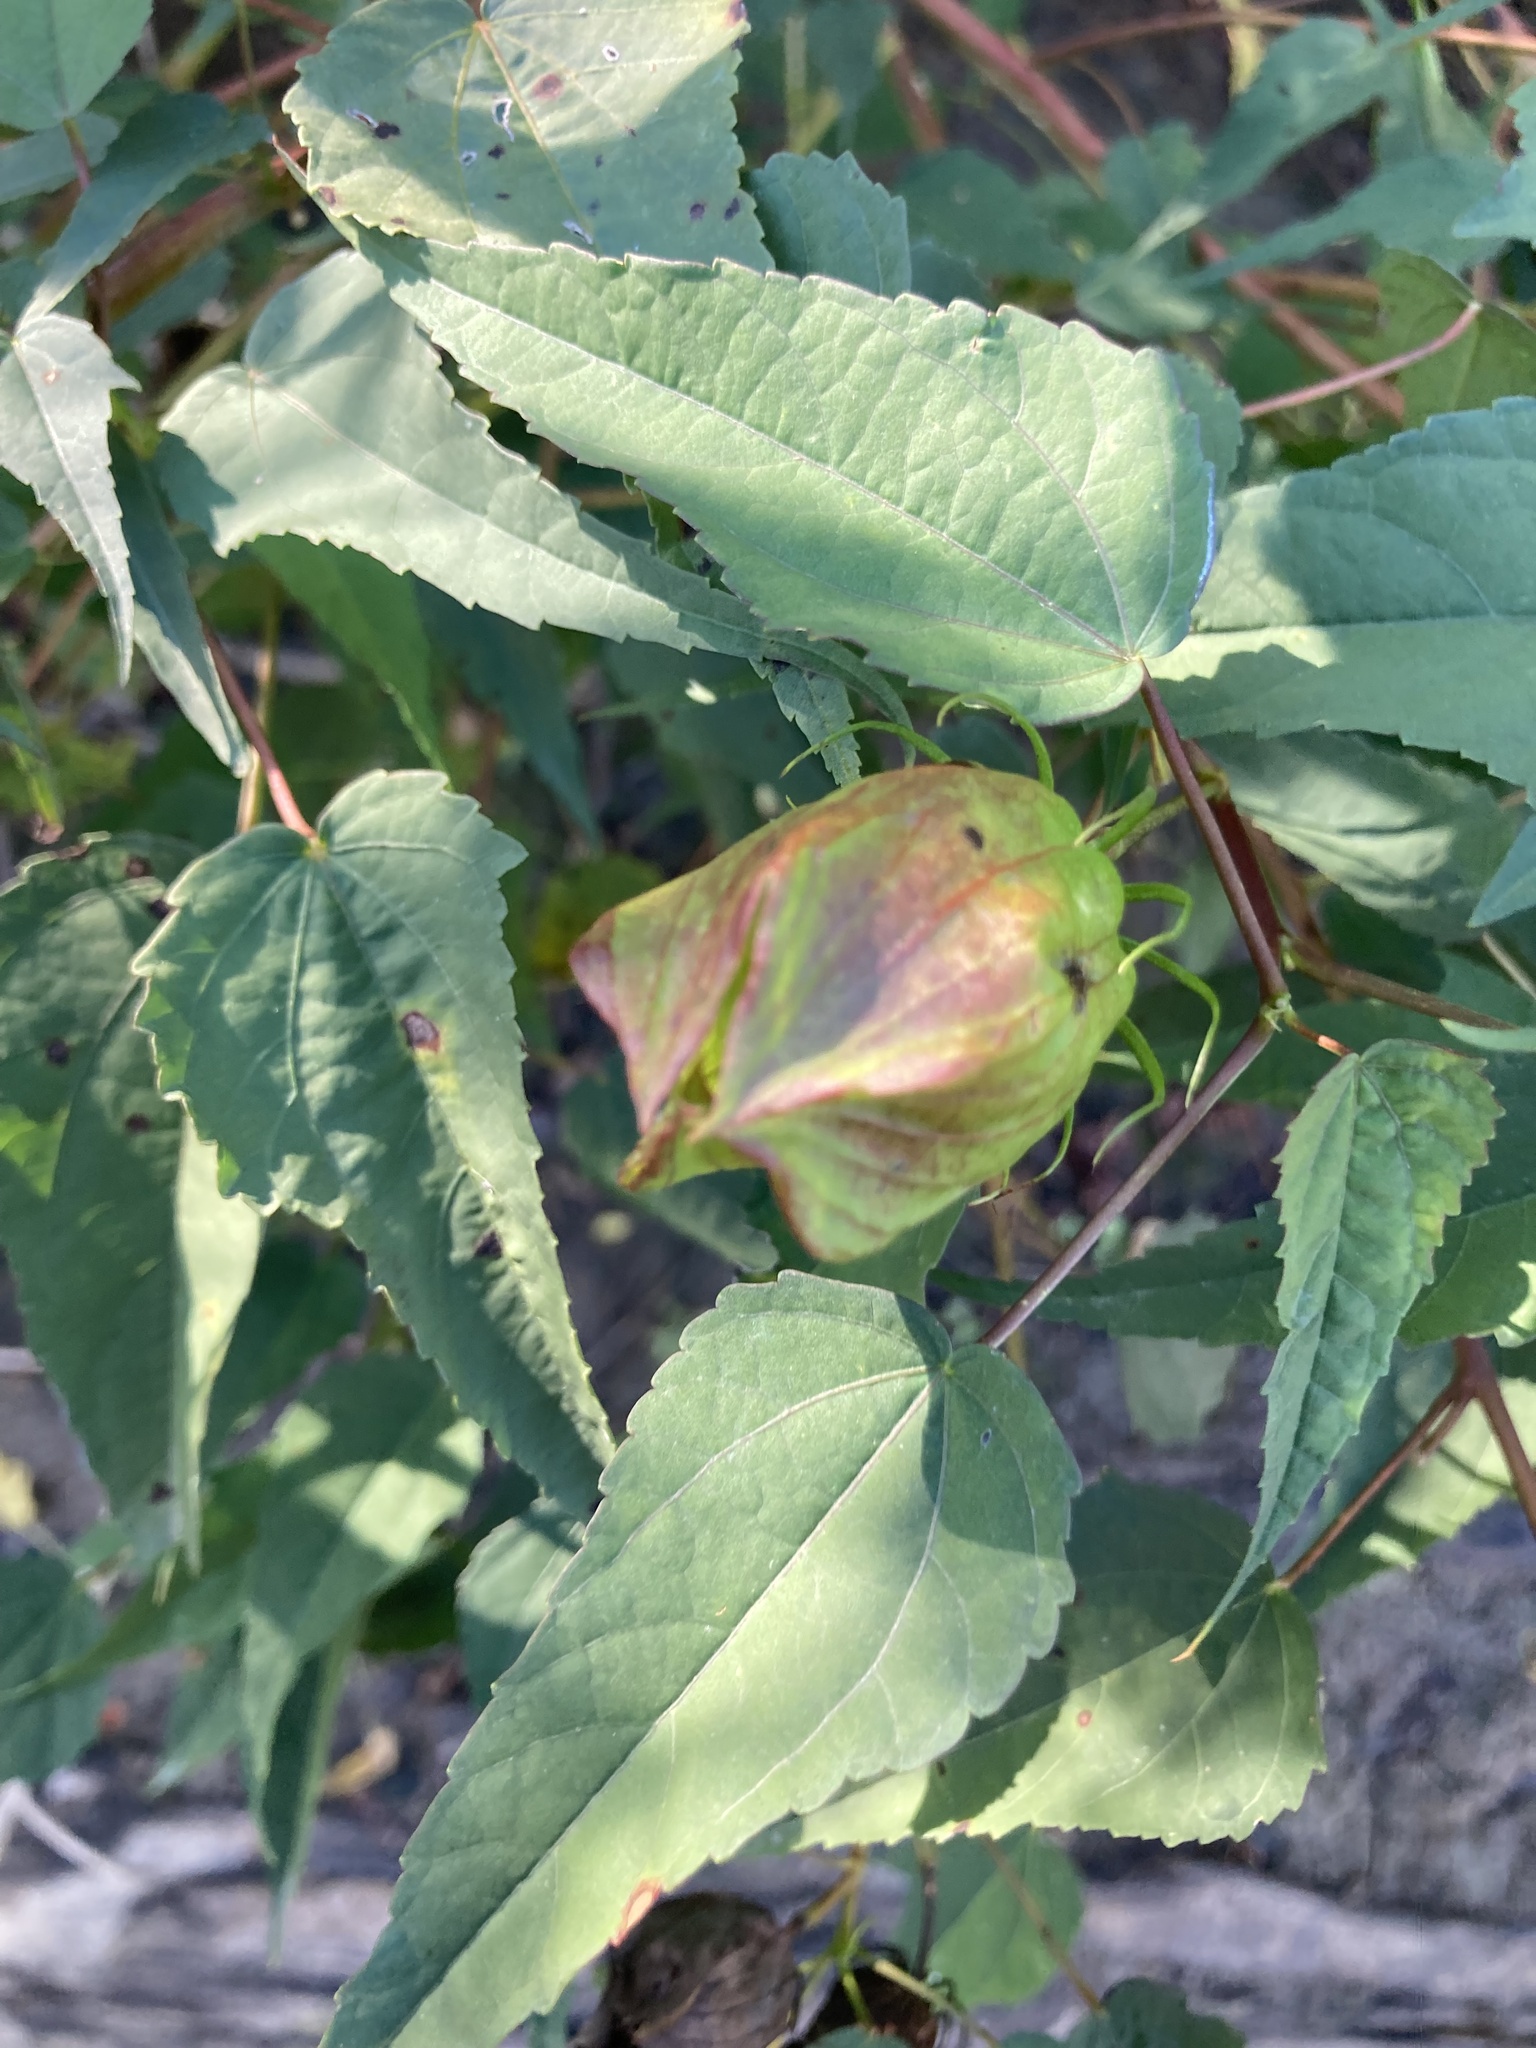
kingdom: Plantae
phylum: Tracheophyta
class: Magnoliopsida
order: Malvales
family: Malvaceae
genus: Hibiscus
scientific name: Hibiscus laevis
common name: Scarlet rose-mallow
